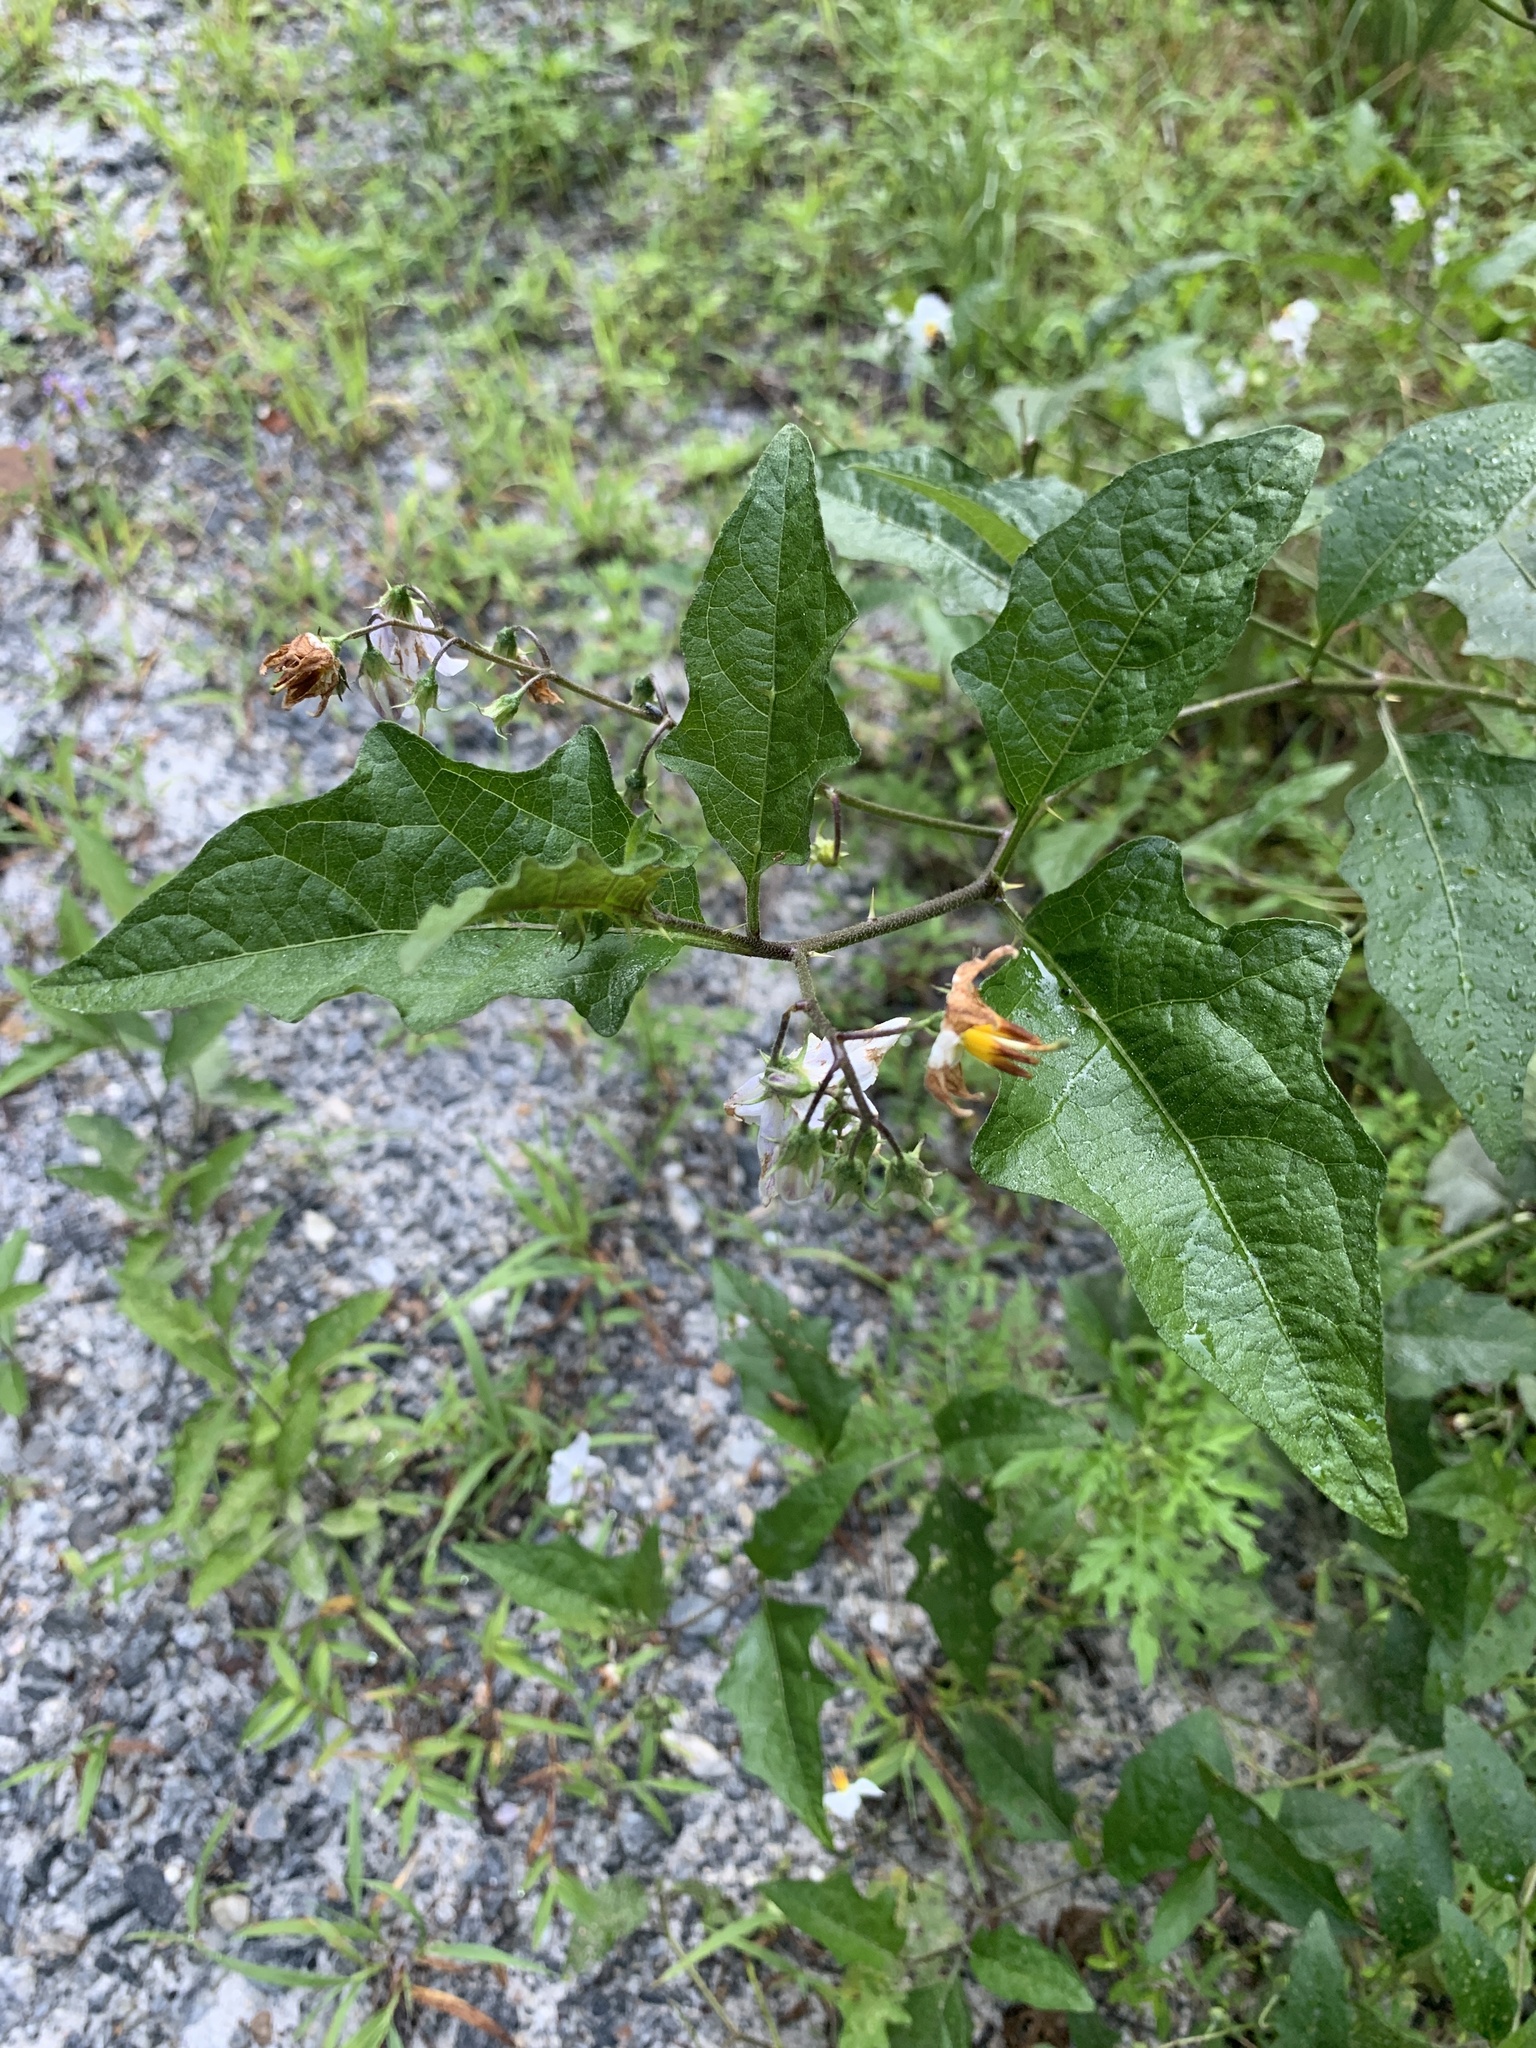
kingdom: Plantae
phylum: Tracheophyta
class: Magnoliopsida
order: Solanales
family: Solanaceae
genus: Solanum
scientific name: Solanum carolinense
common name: Horse-nettle
